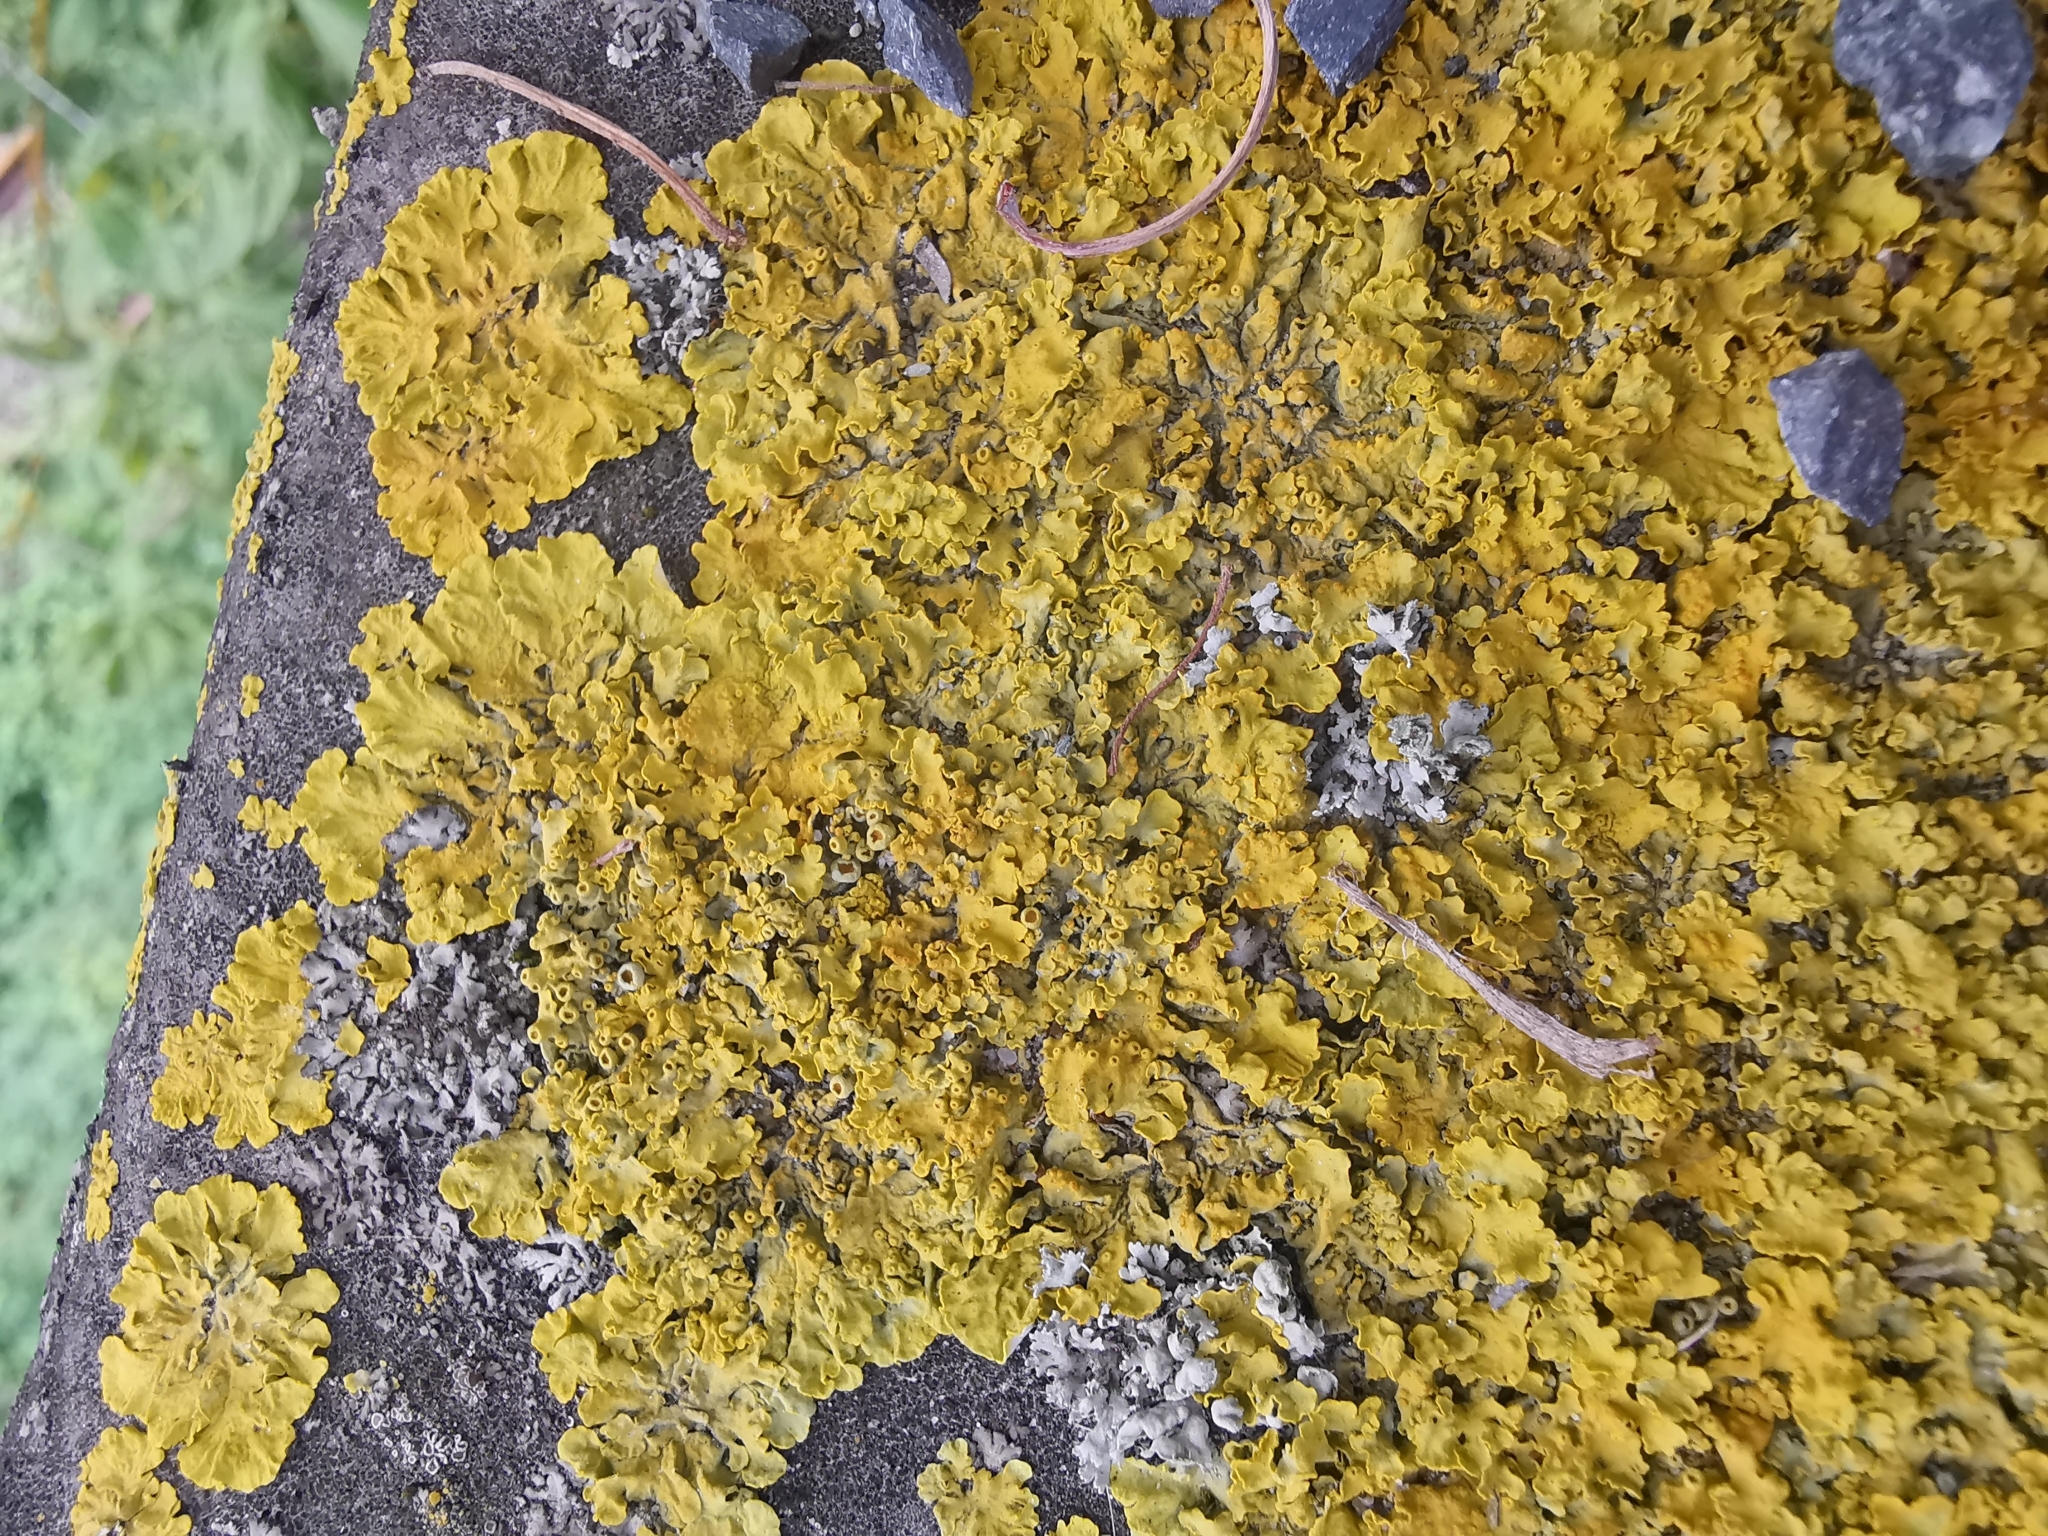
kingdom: Fungi
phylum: Ascomycota
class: Lecanoromycetes
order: Teloschistales
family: Teloschistaceae
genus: Xanthoria
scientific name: Xanthoria parietina
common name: Common orange lichen
